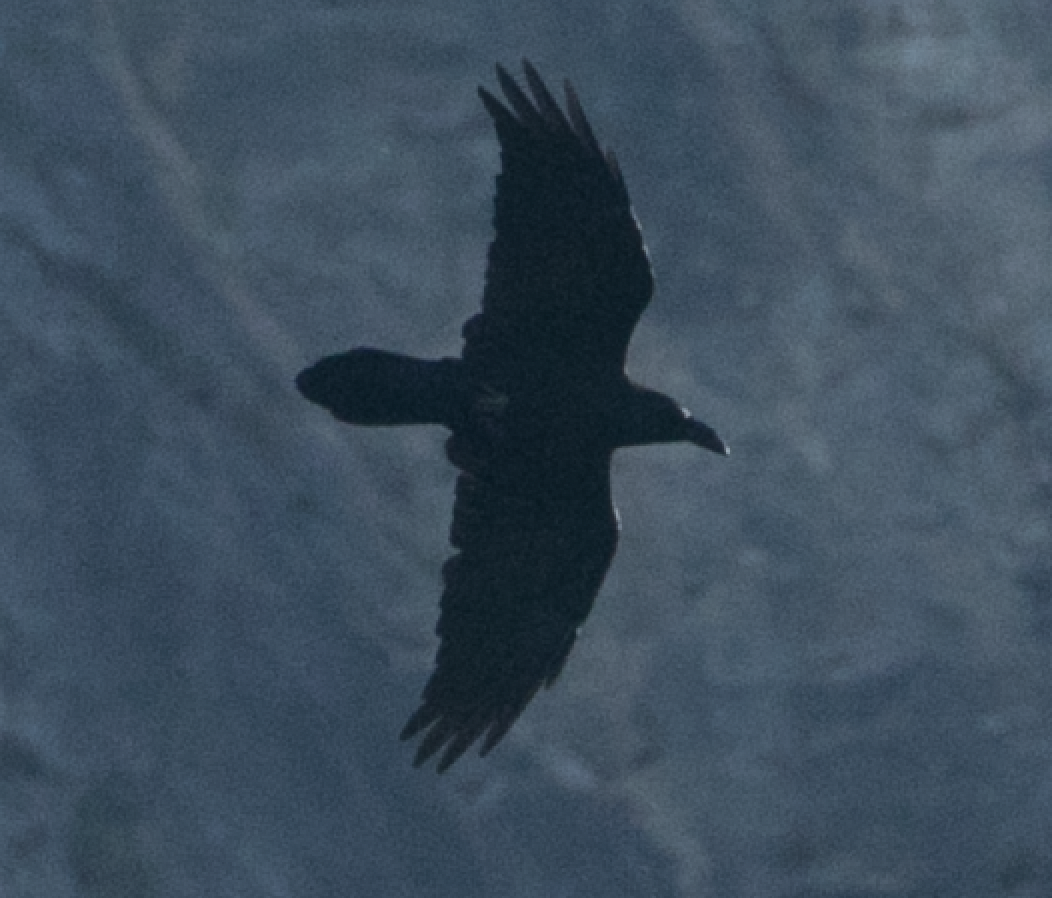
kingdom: Animalia
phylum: Chordata
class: Aves
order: Passeriformes
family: Corvidae
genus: Corvus
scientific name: Corvus corax
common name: Common raven
